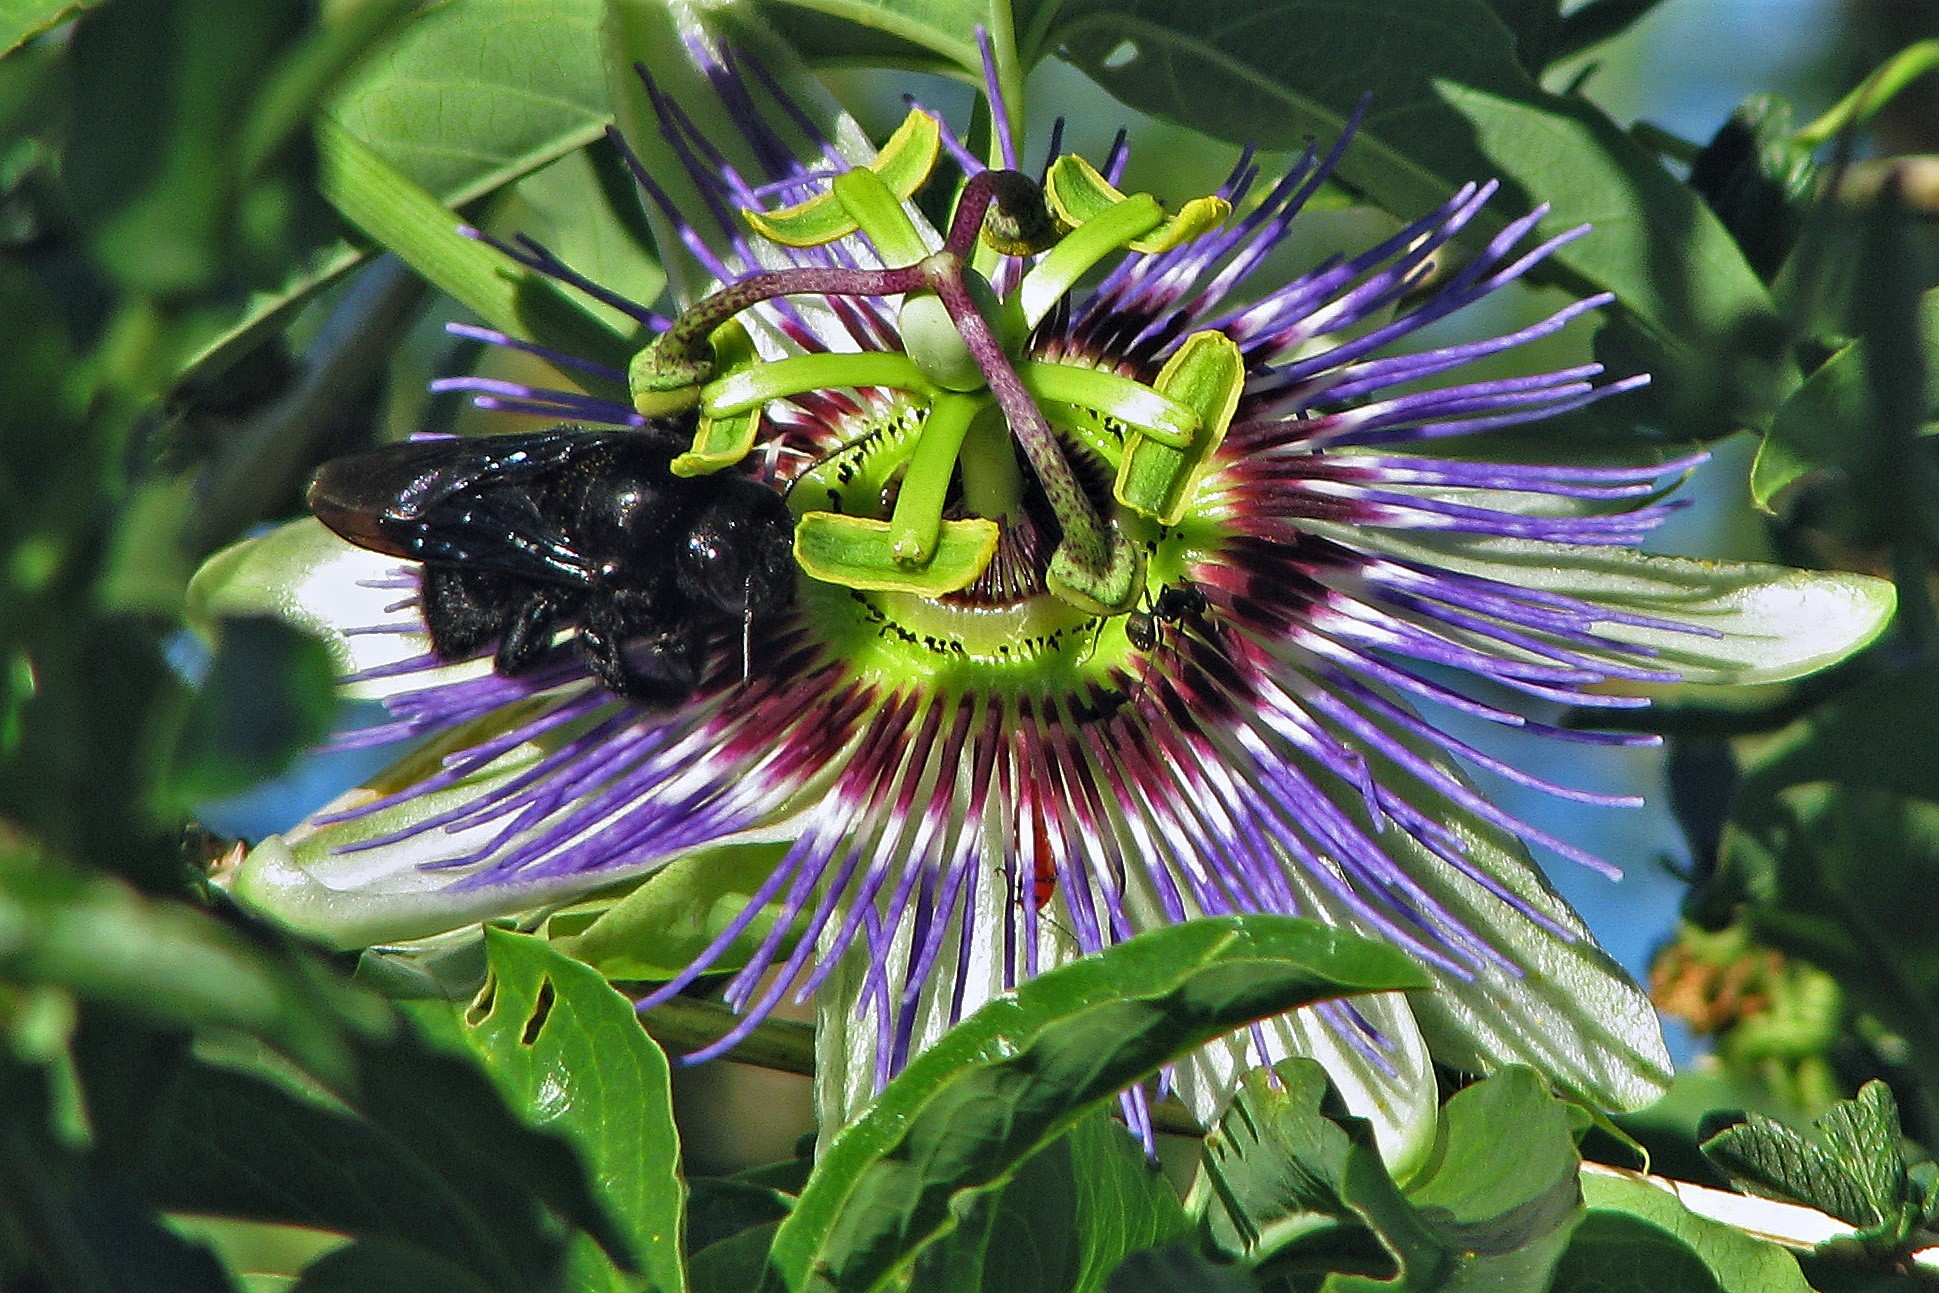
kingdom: Plantae
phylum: Tracheophyta
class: Magnoliopsida
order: Malpighiales
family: Passifloraceae
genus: Passiflora
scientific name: Passiflora caerulea
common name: Blue passionflower
